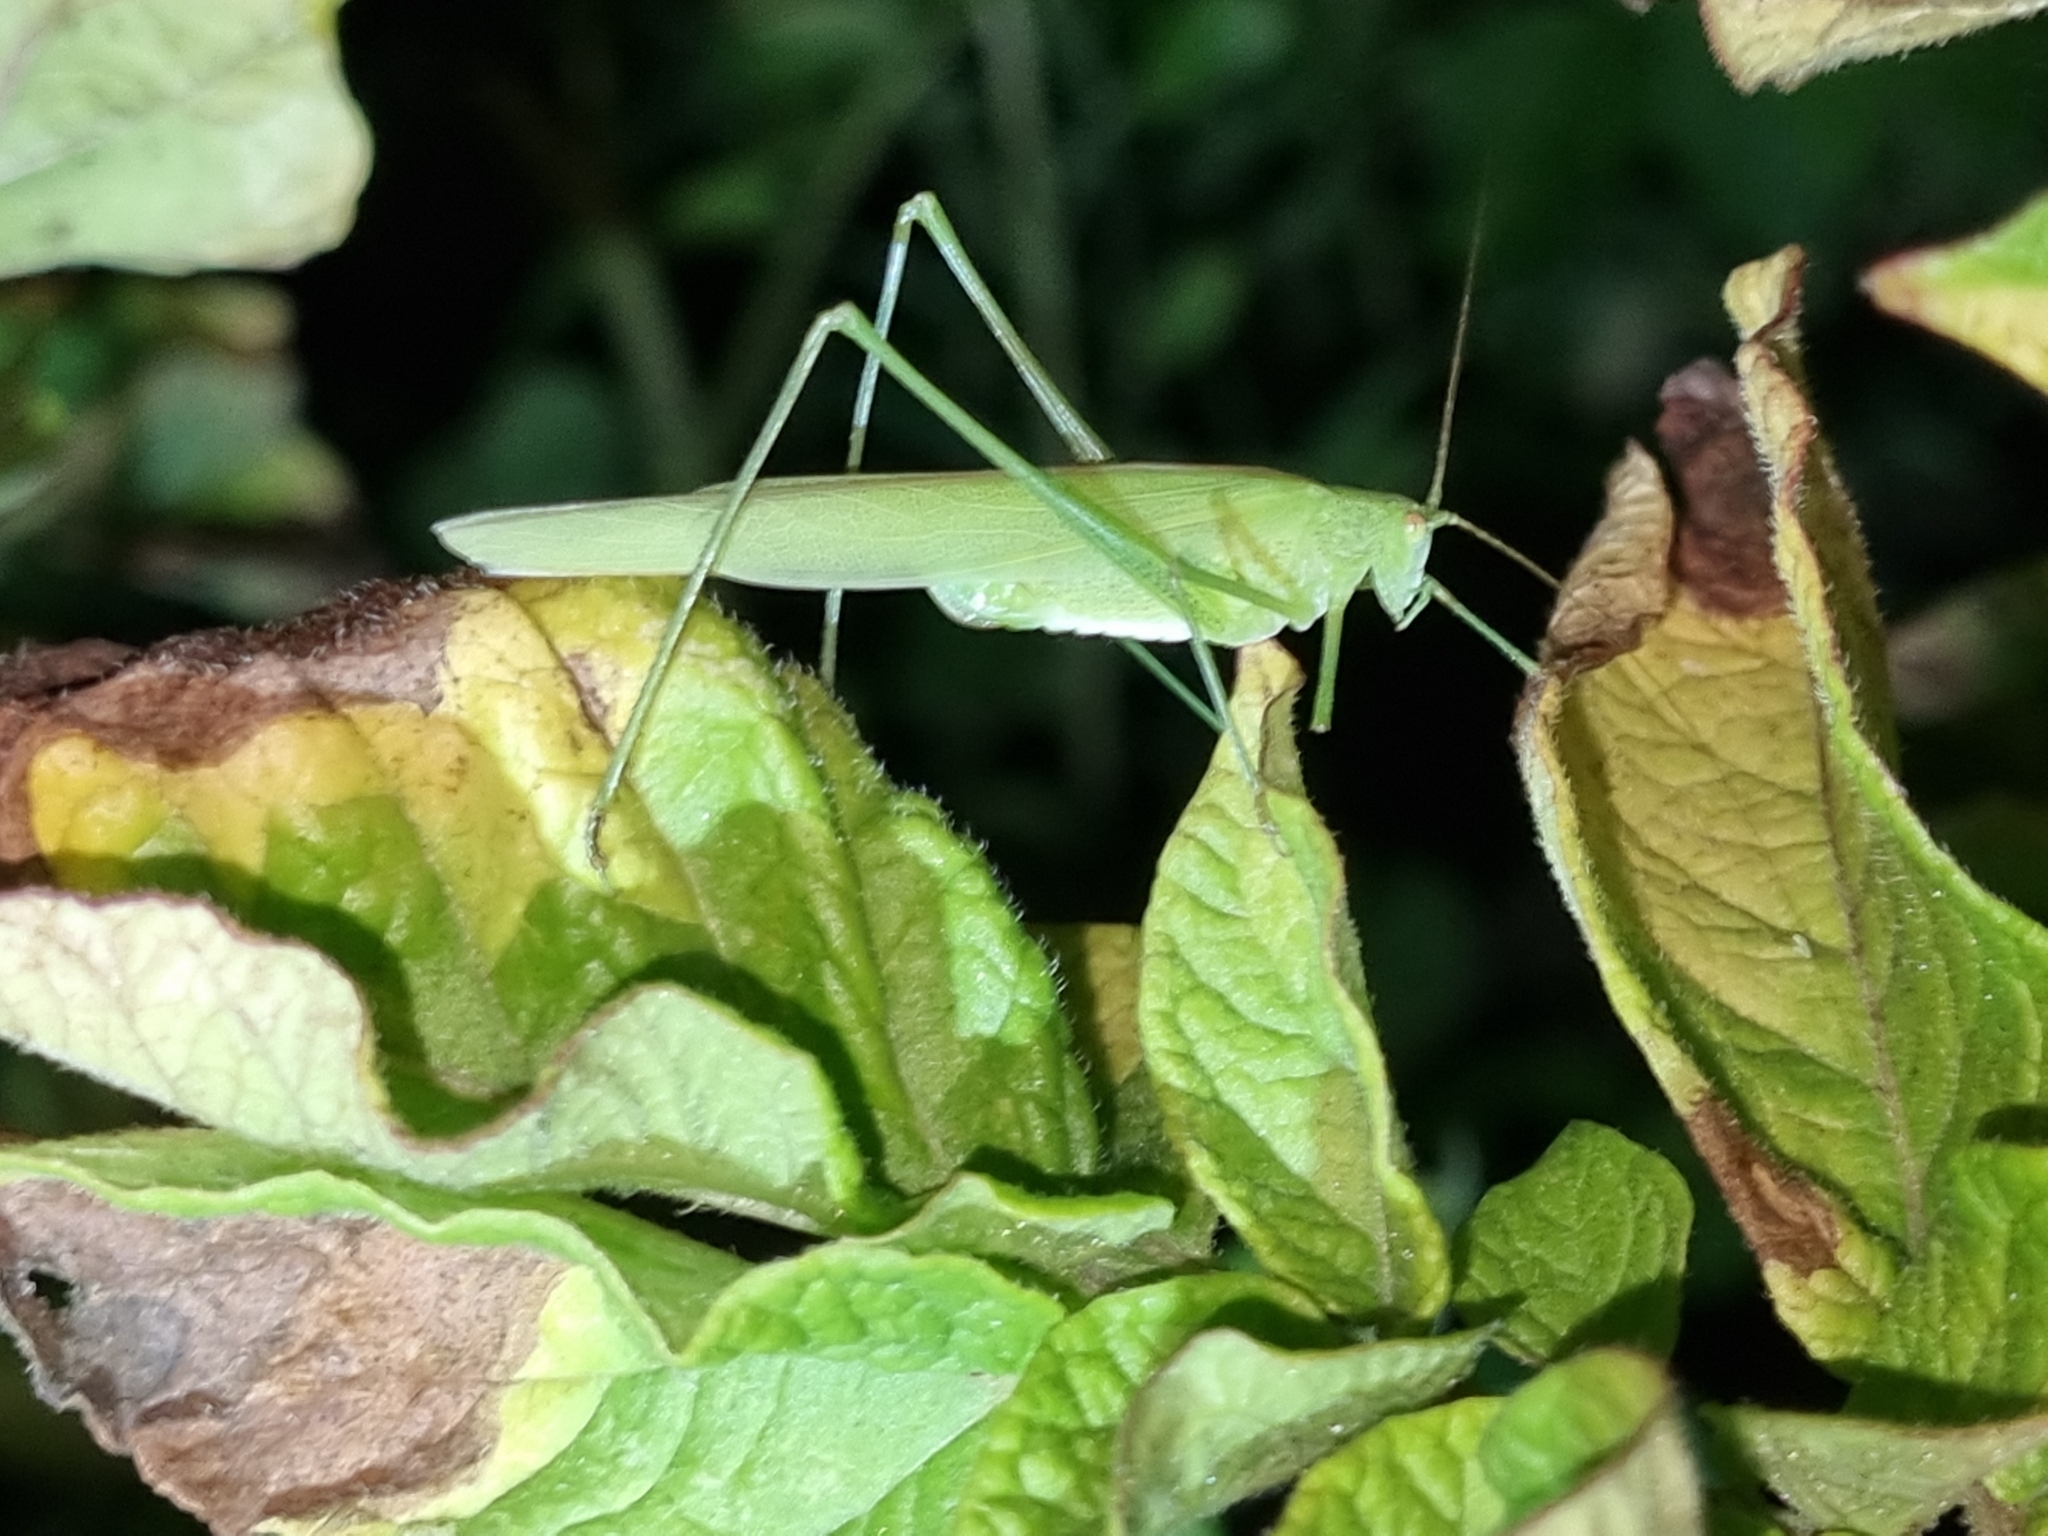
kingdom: Animalia
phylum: Arthropoda
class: Insecta
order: Orthoptera
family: Tettigoniidae
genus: Phaneroptera
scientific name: Phaneroptera falcata
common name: Sickle-bearing bush-cricket
